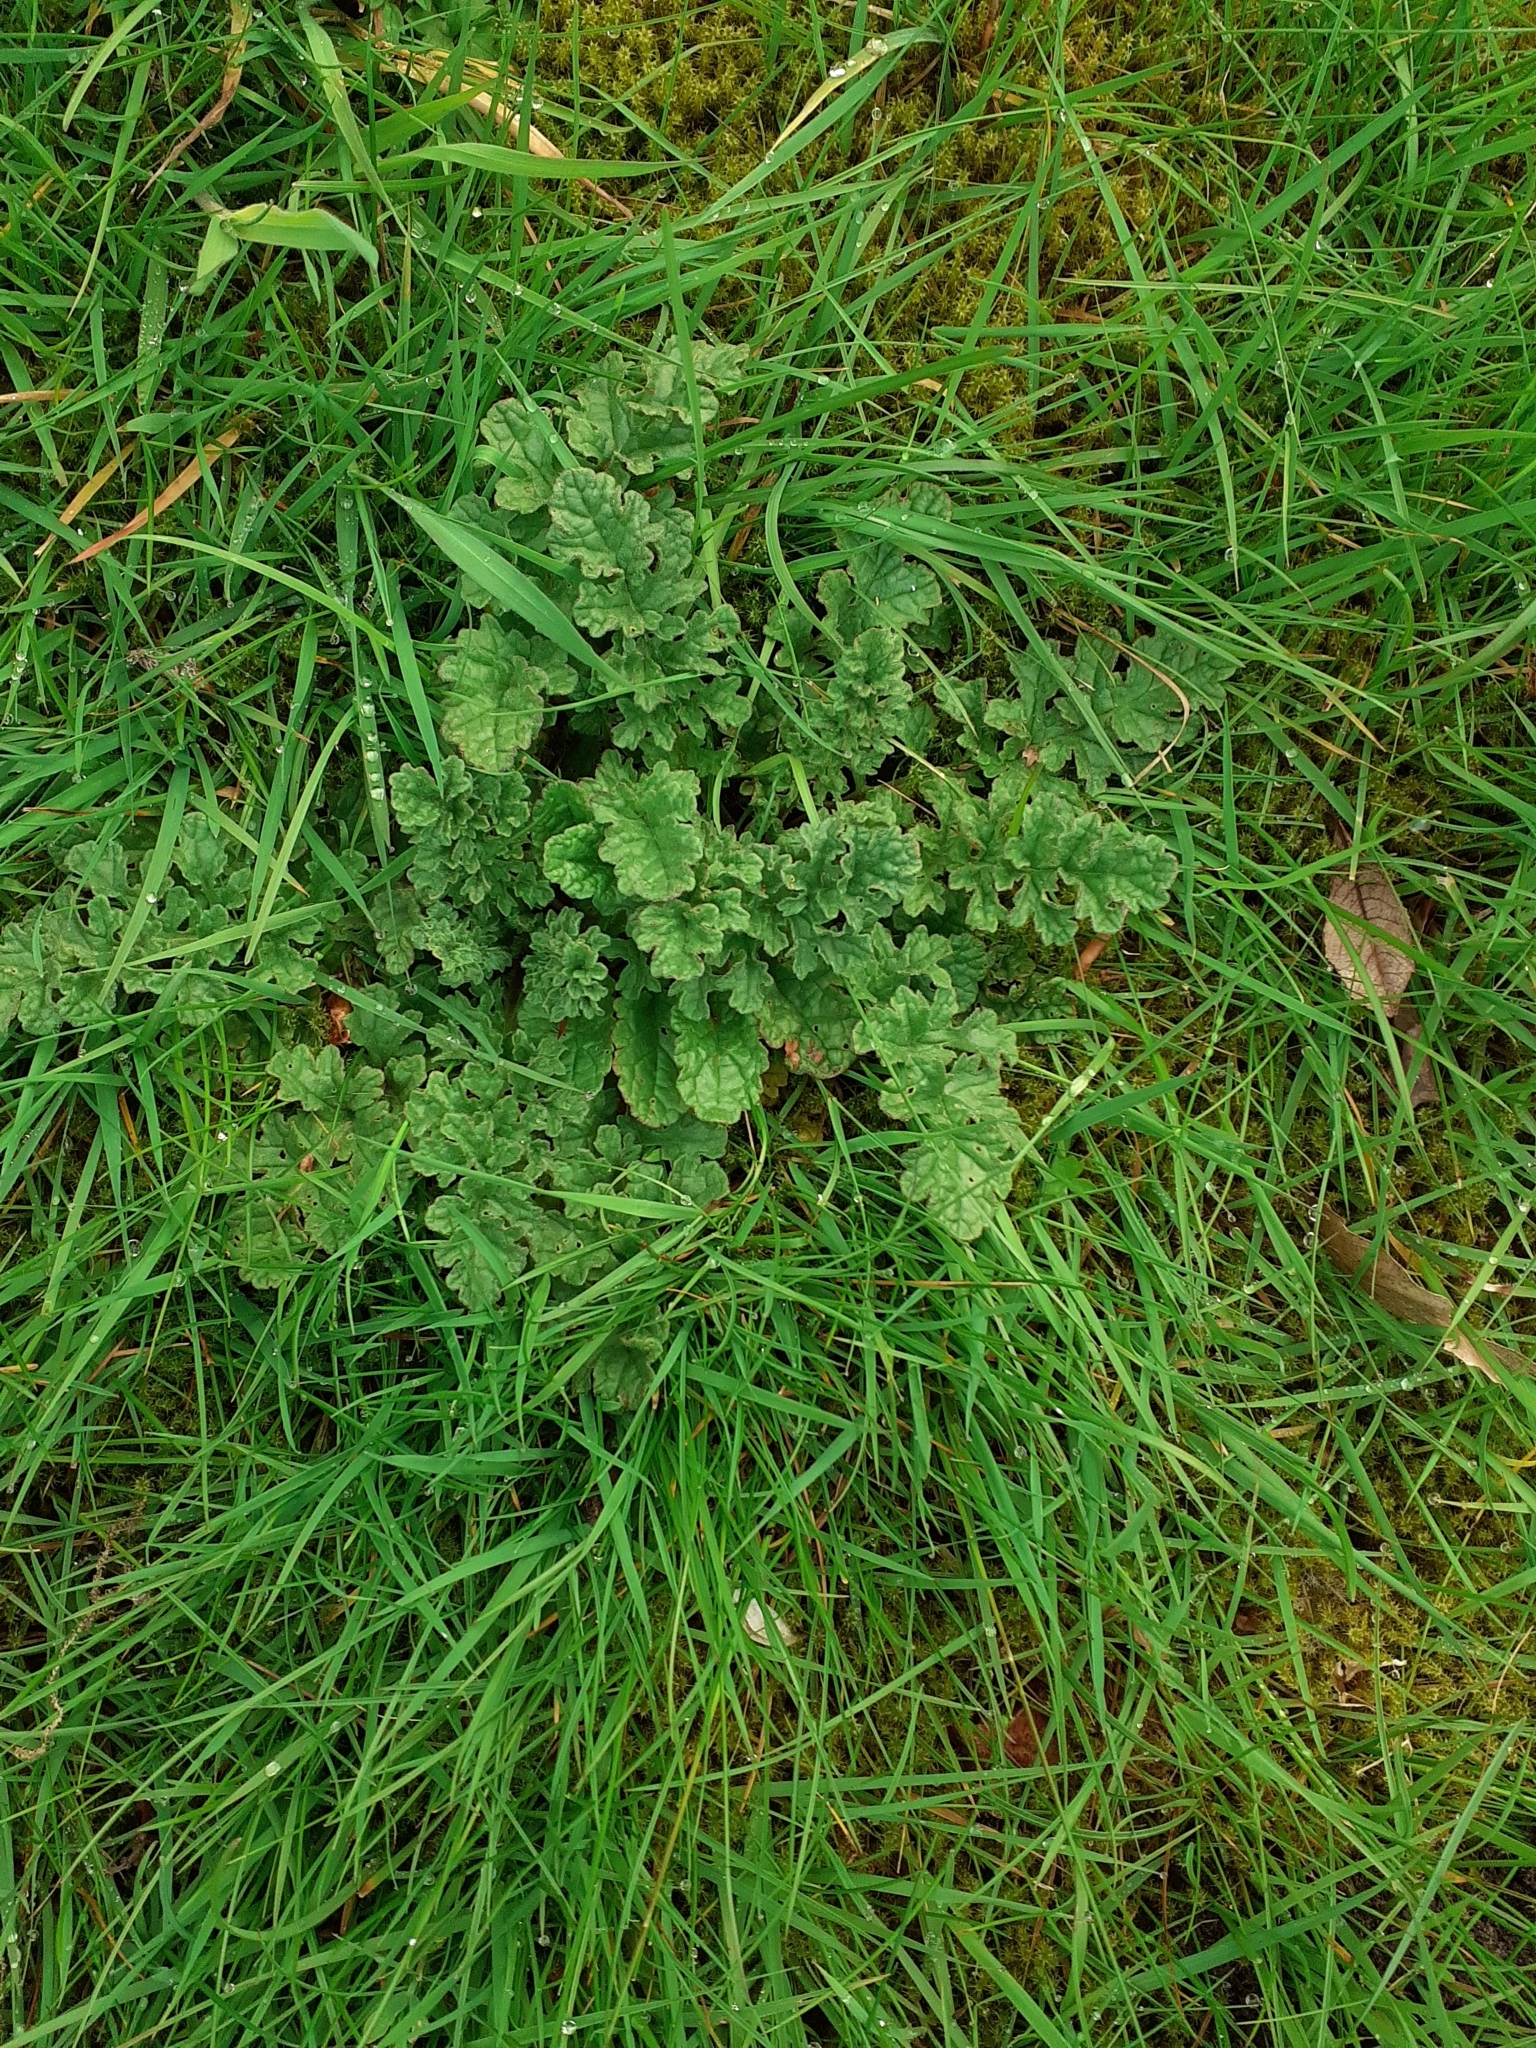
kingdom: Plantae
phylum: Tracheophyta
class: Magnoliopsida
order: Asterales
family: Asteraceae
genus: Jacobaea
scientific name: Jacobaea vulgaris
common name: Stinking willie
